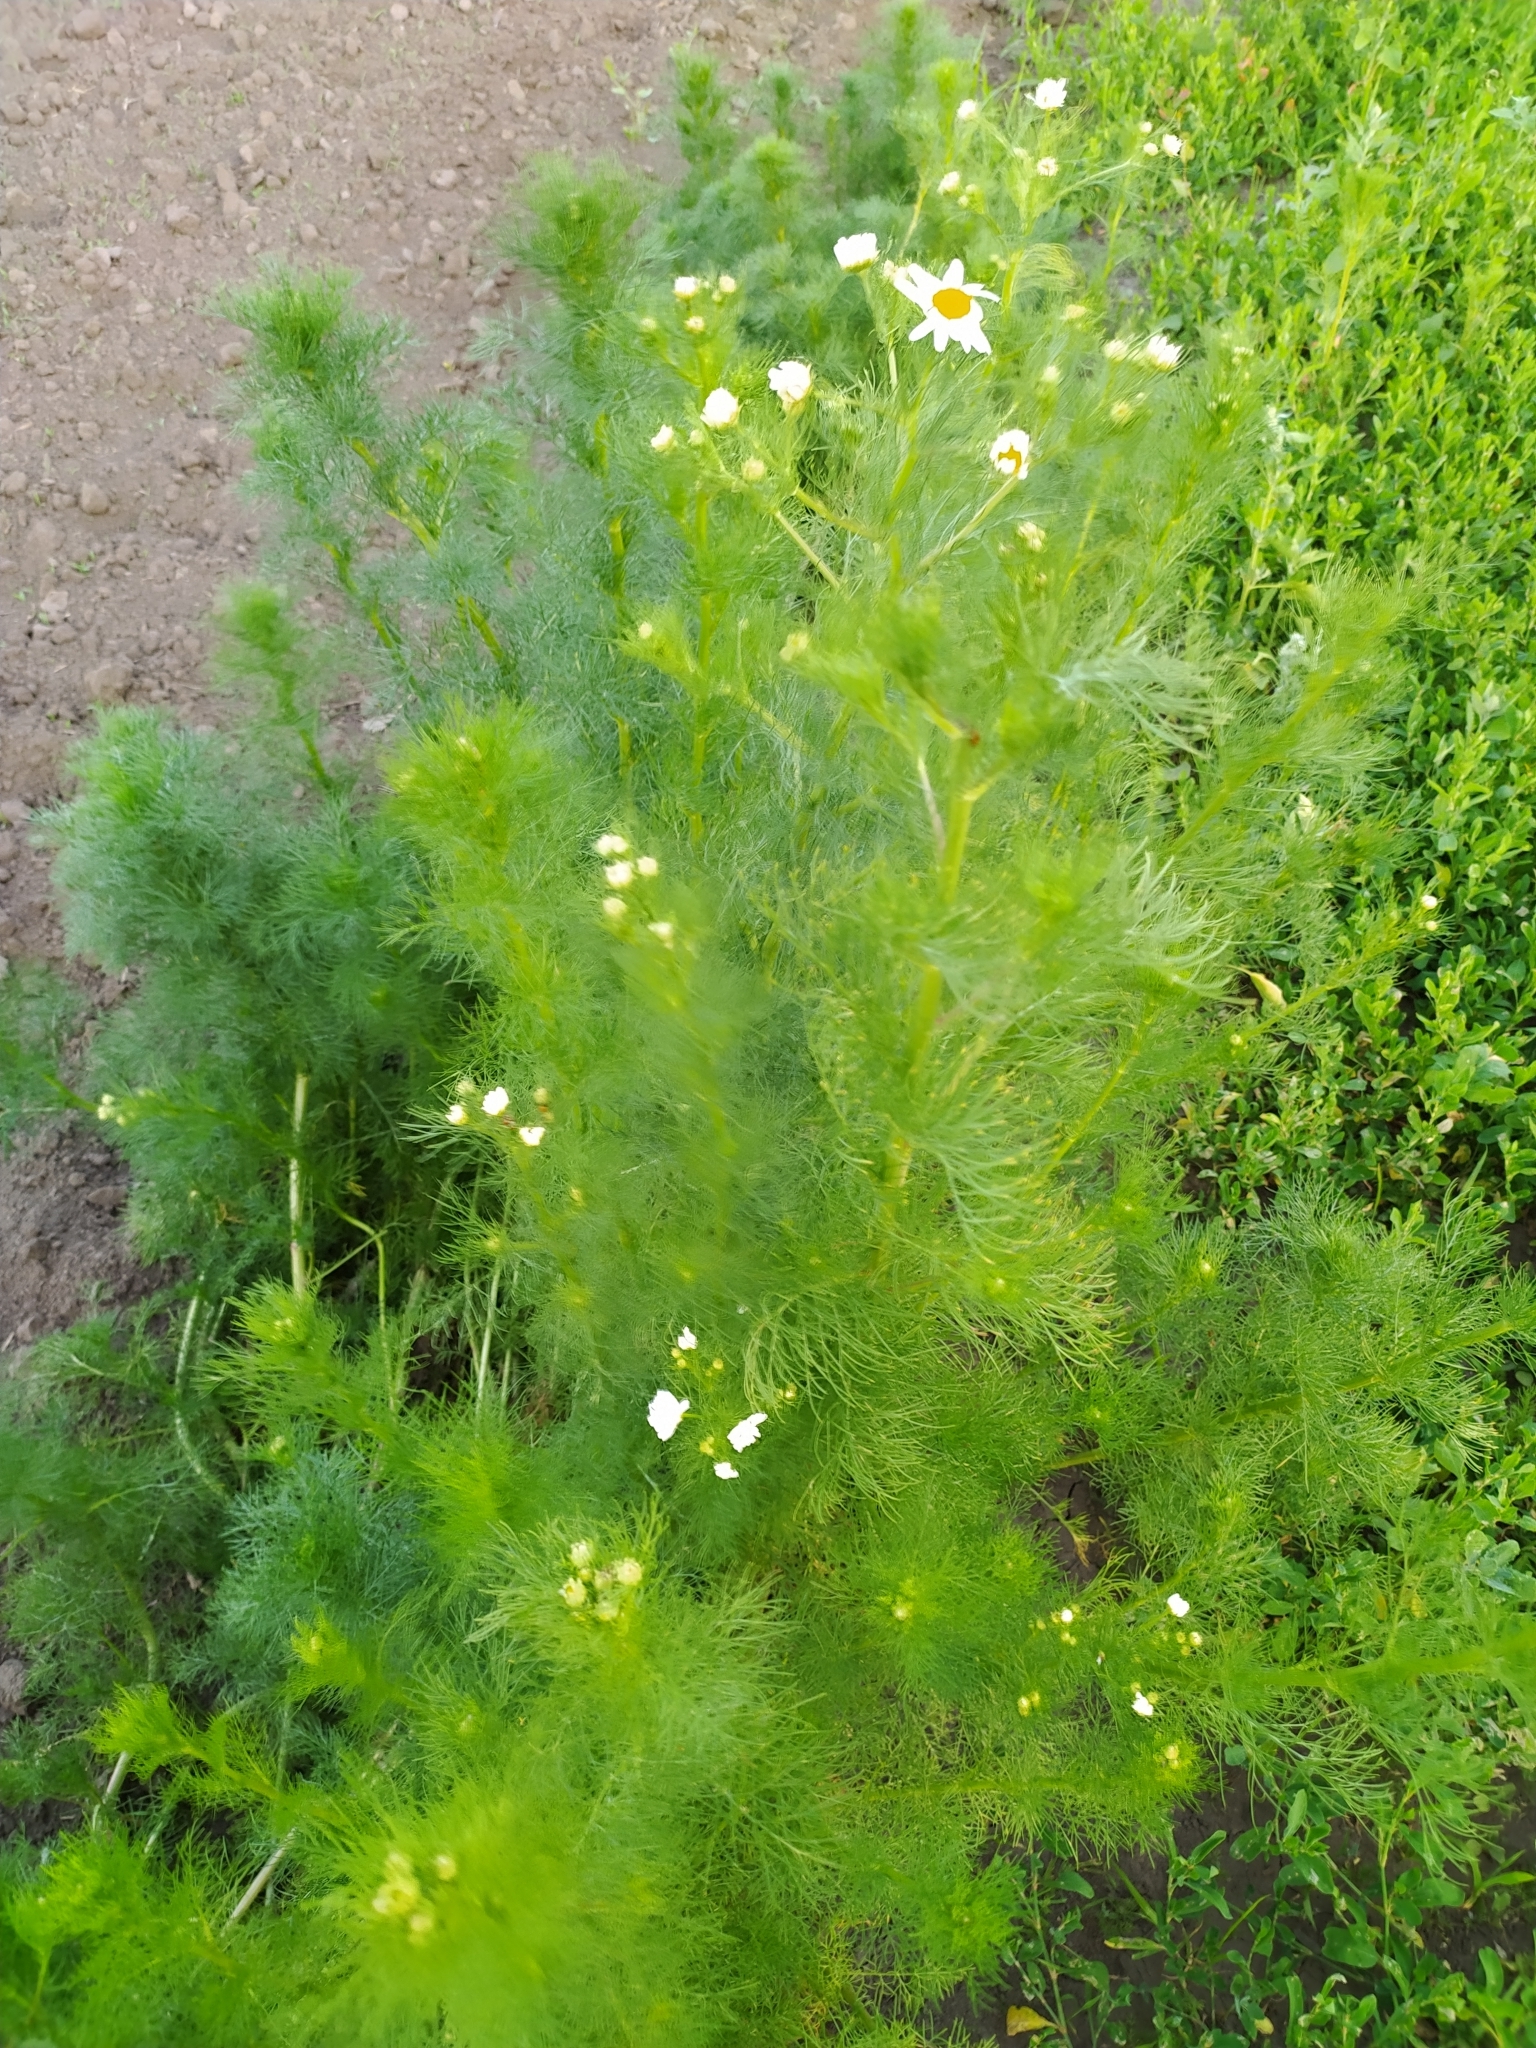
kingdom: Plantae
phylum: Tracheophyta
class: Magnoliopsida
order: Asterales
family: Asteraceae
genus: Tripleurospermum
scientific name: Tripleurospermum inodorum
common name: Scentless mayweed
